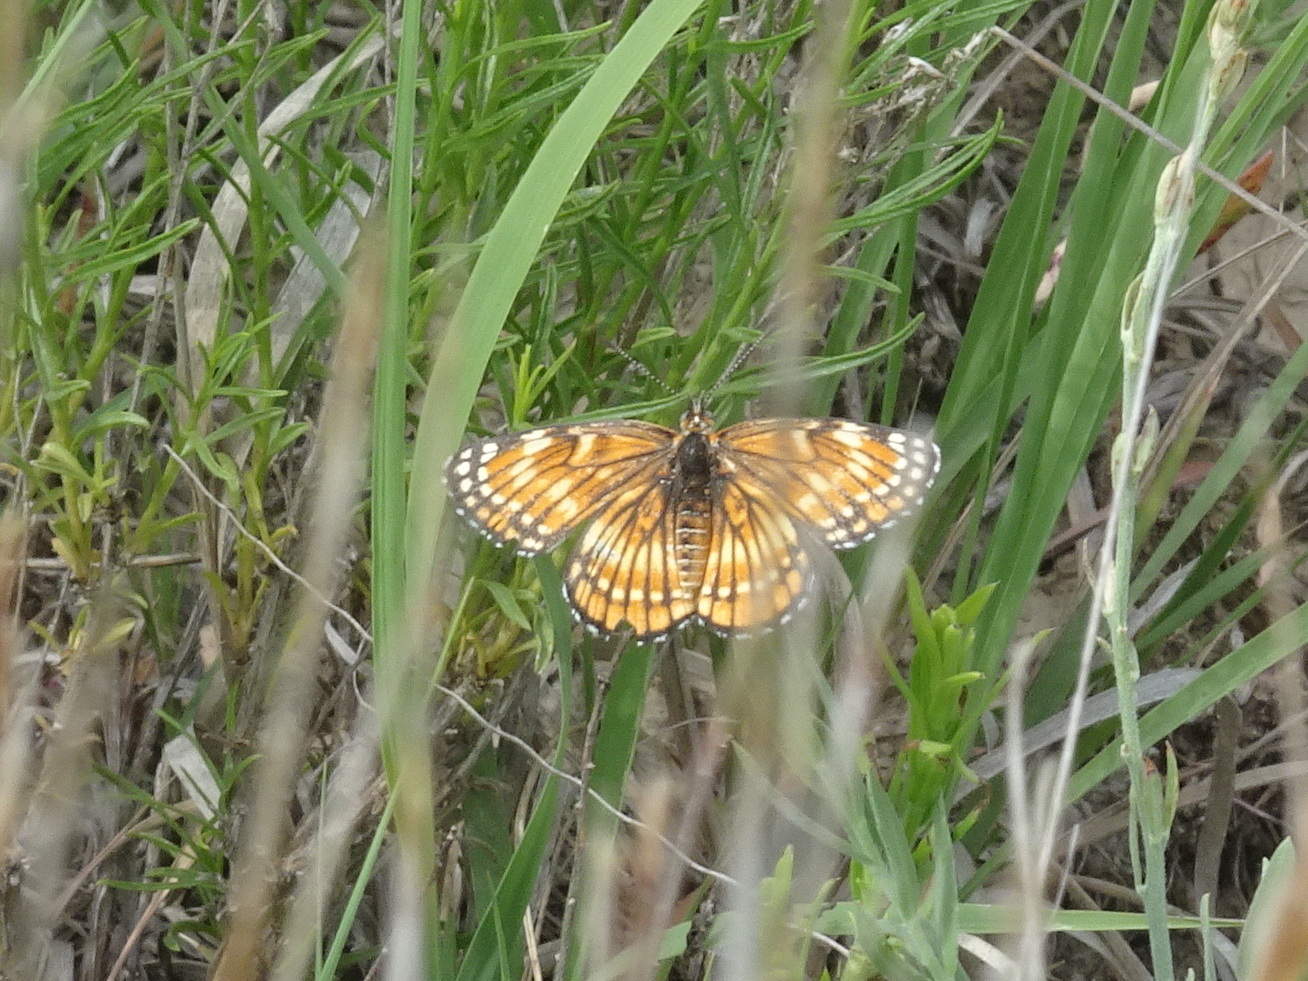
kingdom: Animalia
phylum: Arthropoda
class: Insecta
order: Lepidoptera
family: Nymphalidae
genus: Thessalia
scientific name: Thessalia leanira
